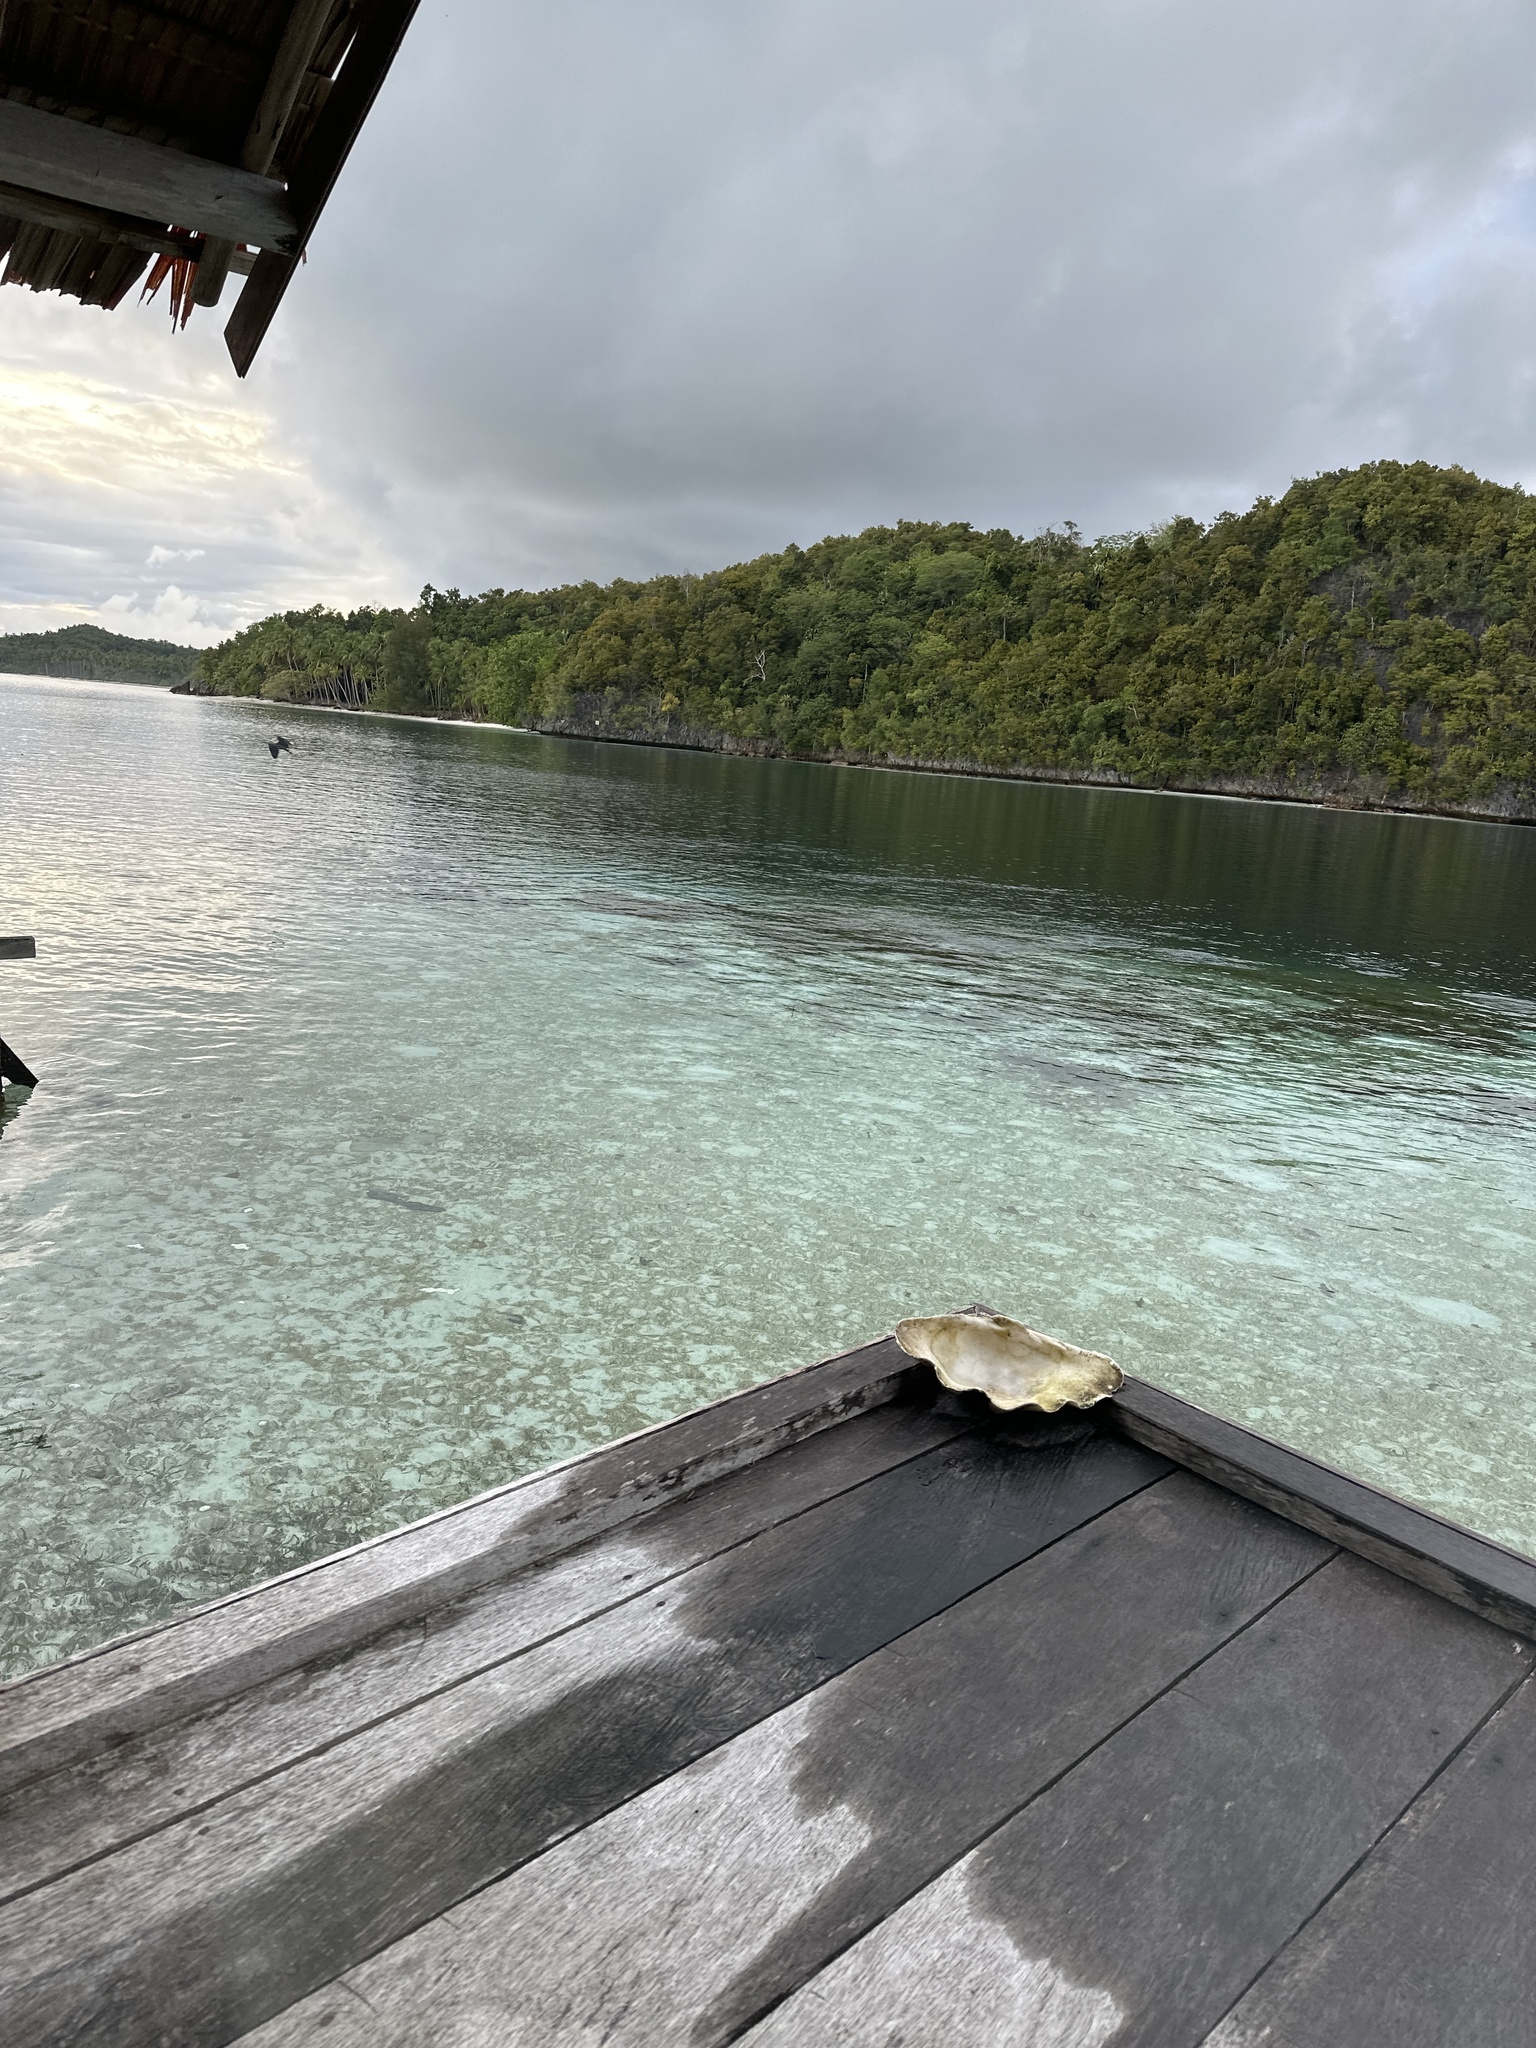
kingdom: Animalia
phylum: Chordata
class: Aves
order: Pelecaniformes
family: Ardeidae
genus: Egretta
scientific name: Egretta sacra
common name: Pacific reef heron
